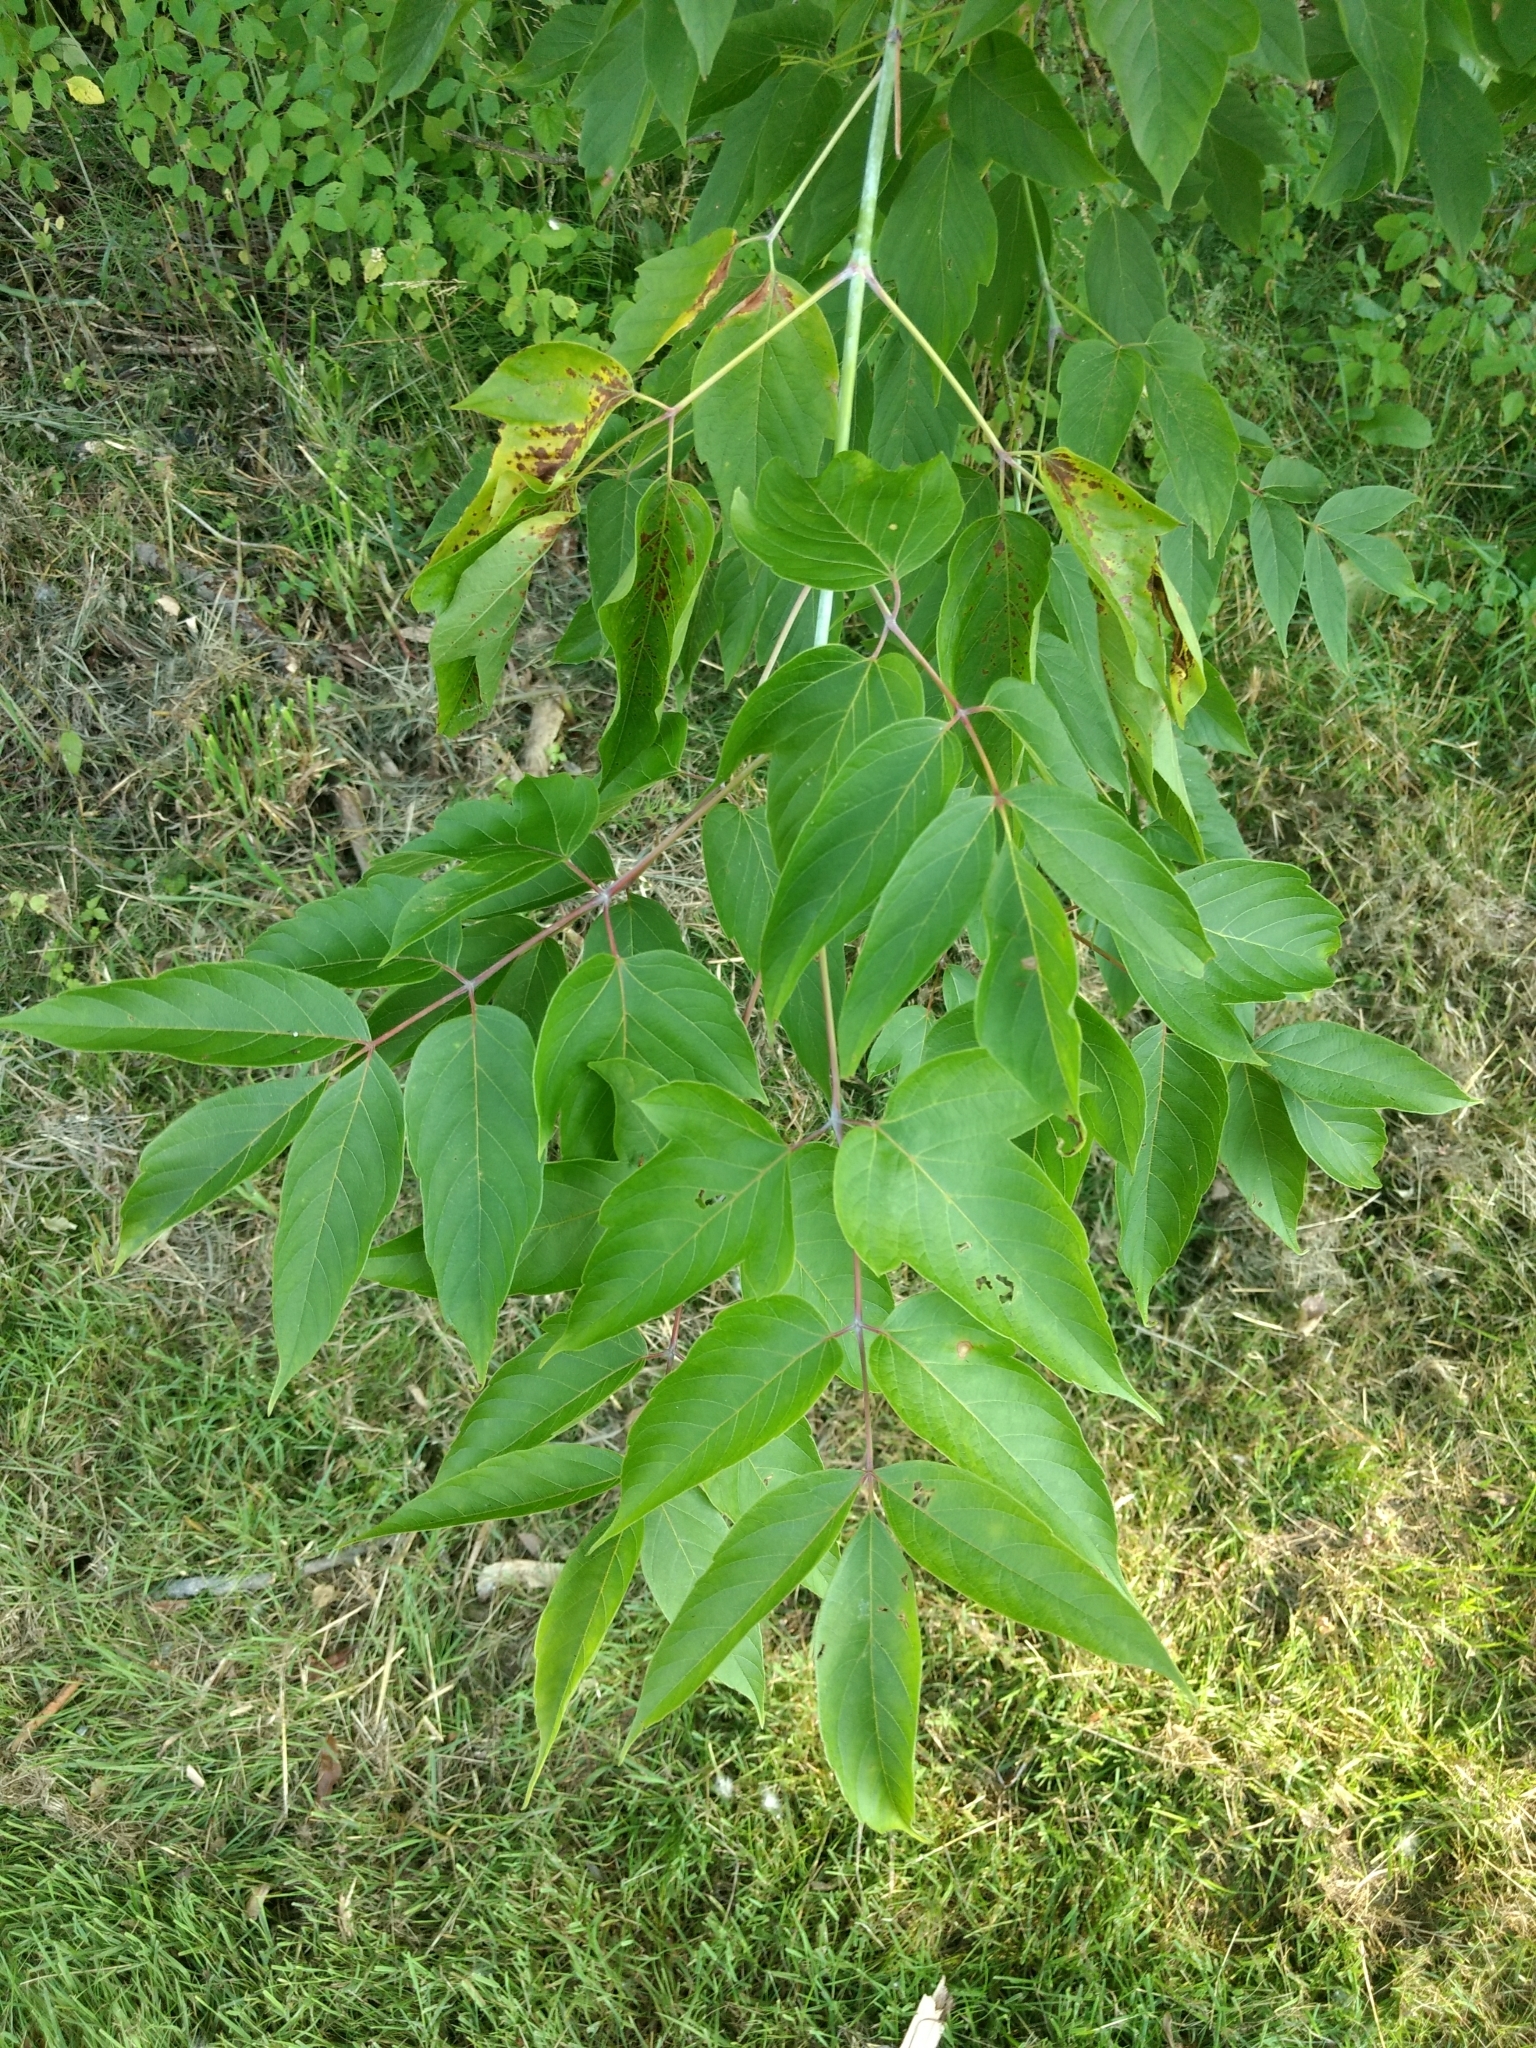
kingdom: Plantae
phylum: Tracheophyta
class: Magnoliopsida
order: Sapindales
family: Sapindaceae
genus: Acer
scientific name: Acer negundo
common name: Ashleaf maple
